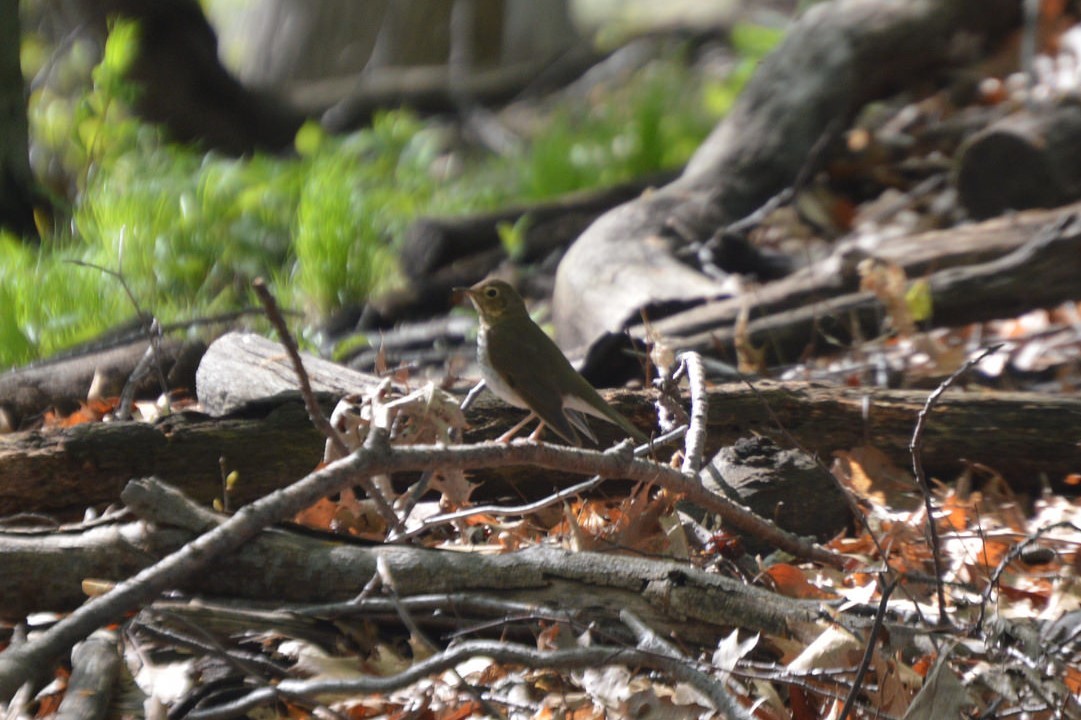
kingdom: Animalia
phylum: Chordata
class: Aves
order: Passeriformes
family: Turdidae
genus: Catharus
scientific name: Catharus ustulatus
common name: Swainson's thrush
